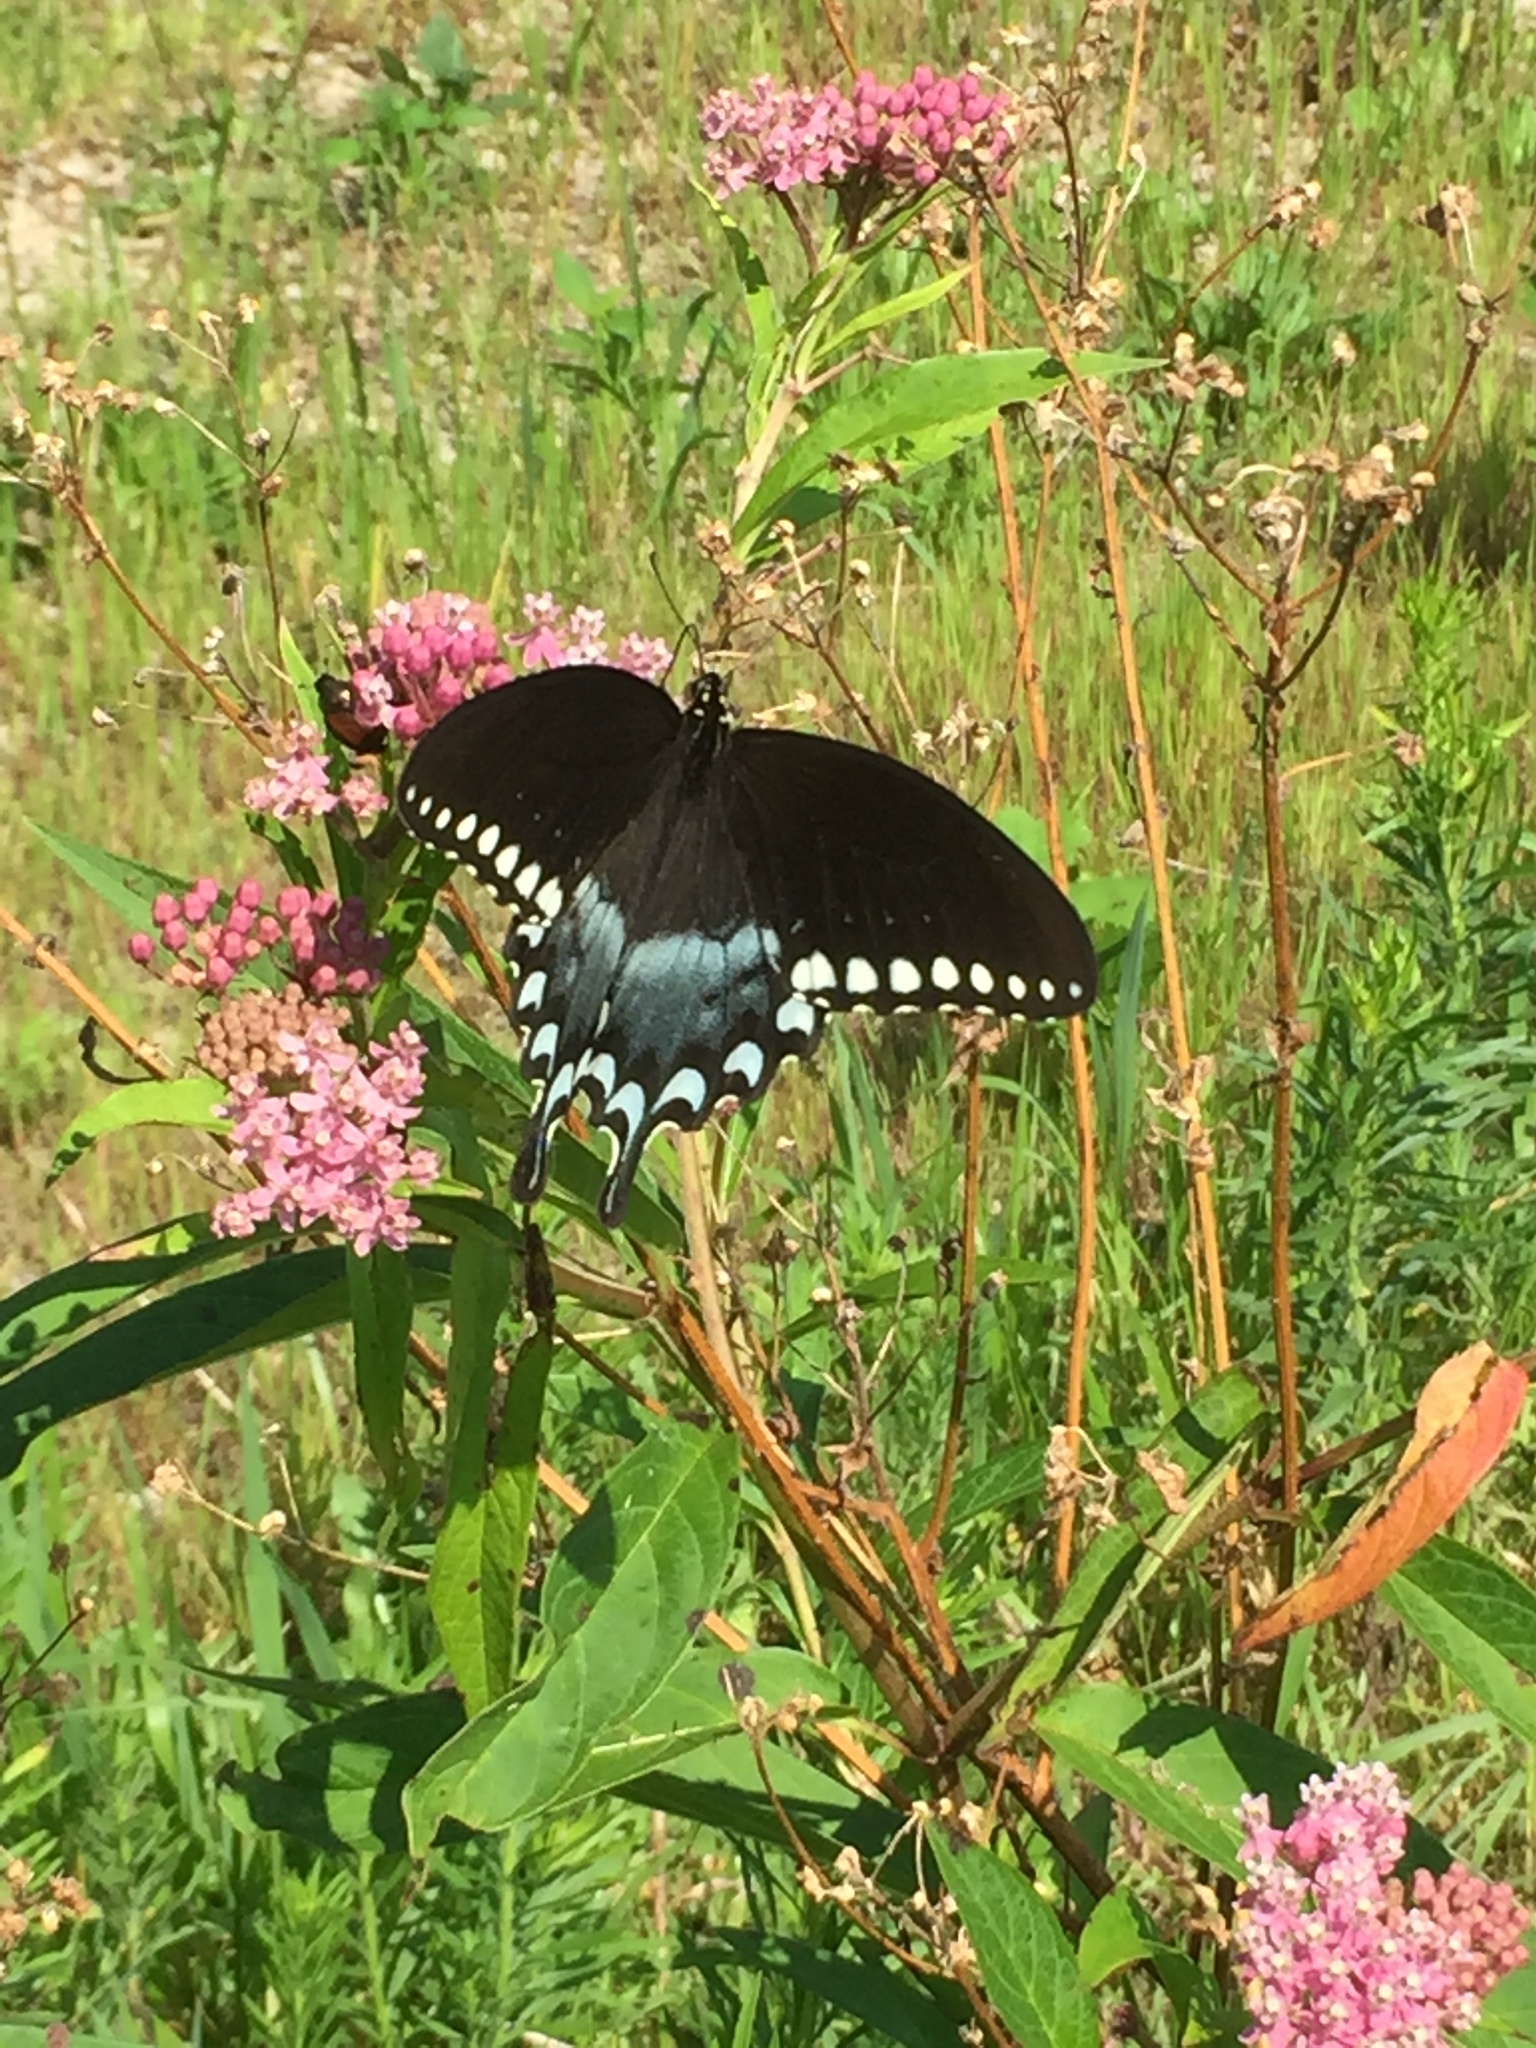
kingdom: Animalia
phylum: Arthropoda
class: Insecta
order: Lepidoptera
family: Papilionidae
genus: Papilio
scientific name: Papilio troilus
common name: Spicebush swallowtail
